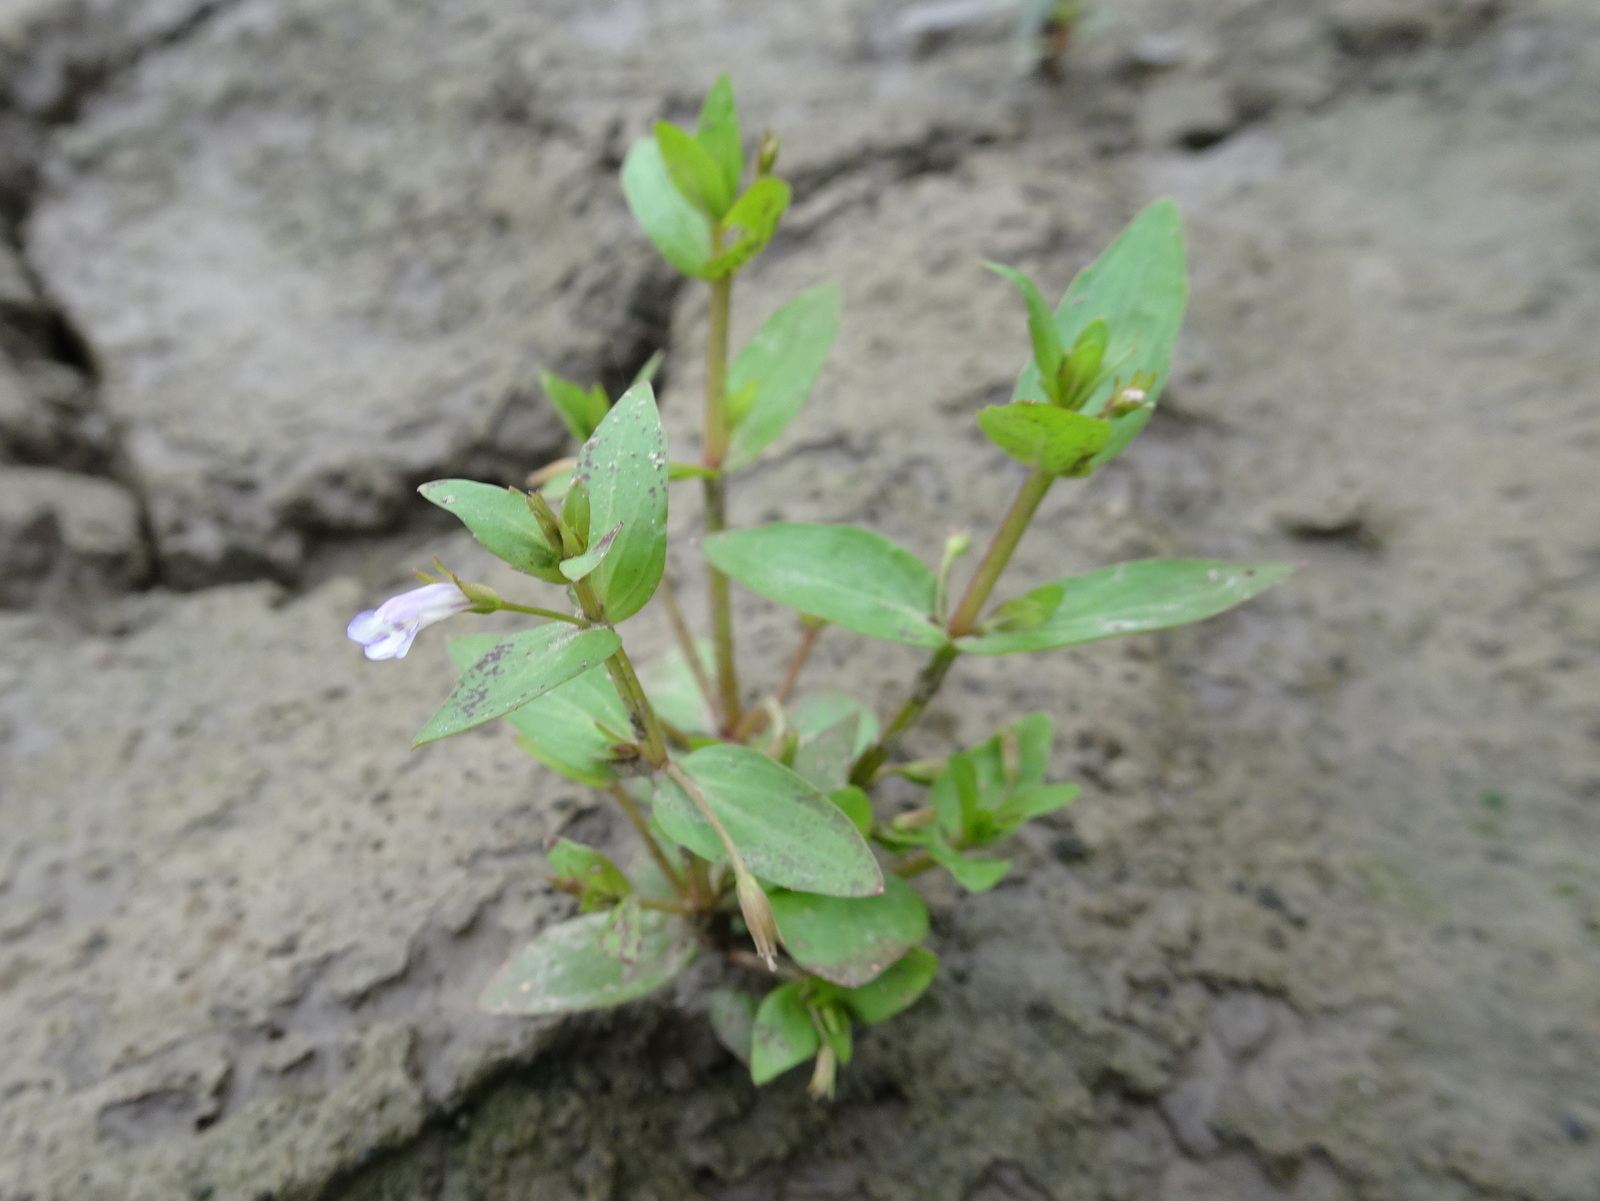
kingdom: Plantae
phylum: Tracheophyta
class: Magnoliopsida
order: Lamiales
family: Linderniaceae
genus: Lindernia
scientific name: Lindernia dubia
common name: Annual false pimpernel
